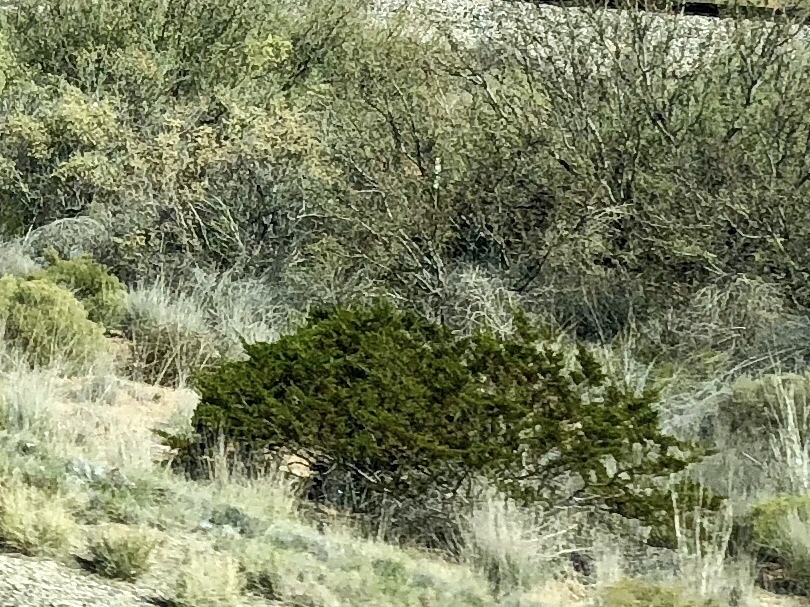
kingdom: Plantae
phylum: Tracheophyta
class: Magnoliopsida
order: Zygophyllales
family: Zygophyllaceae
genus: Larrea
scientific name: Larrea tridentata
